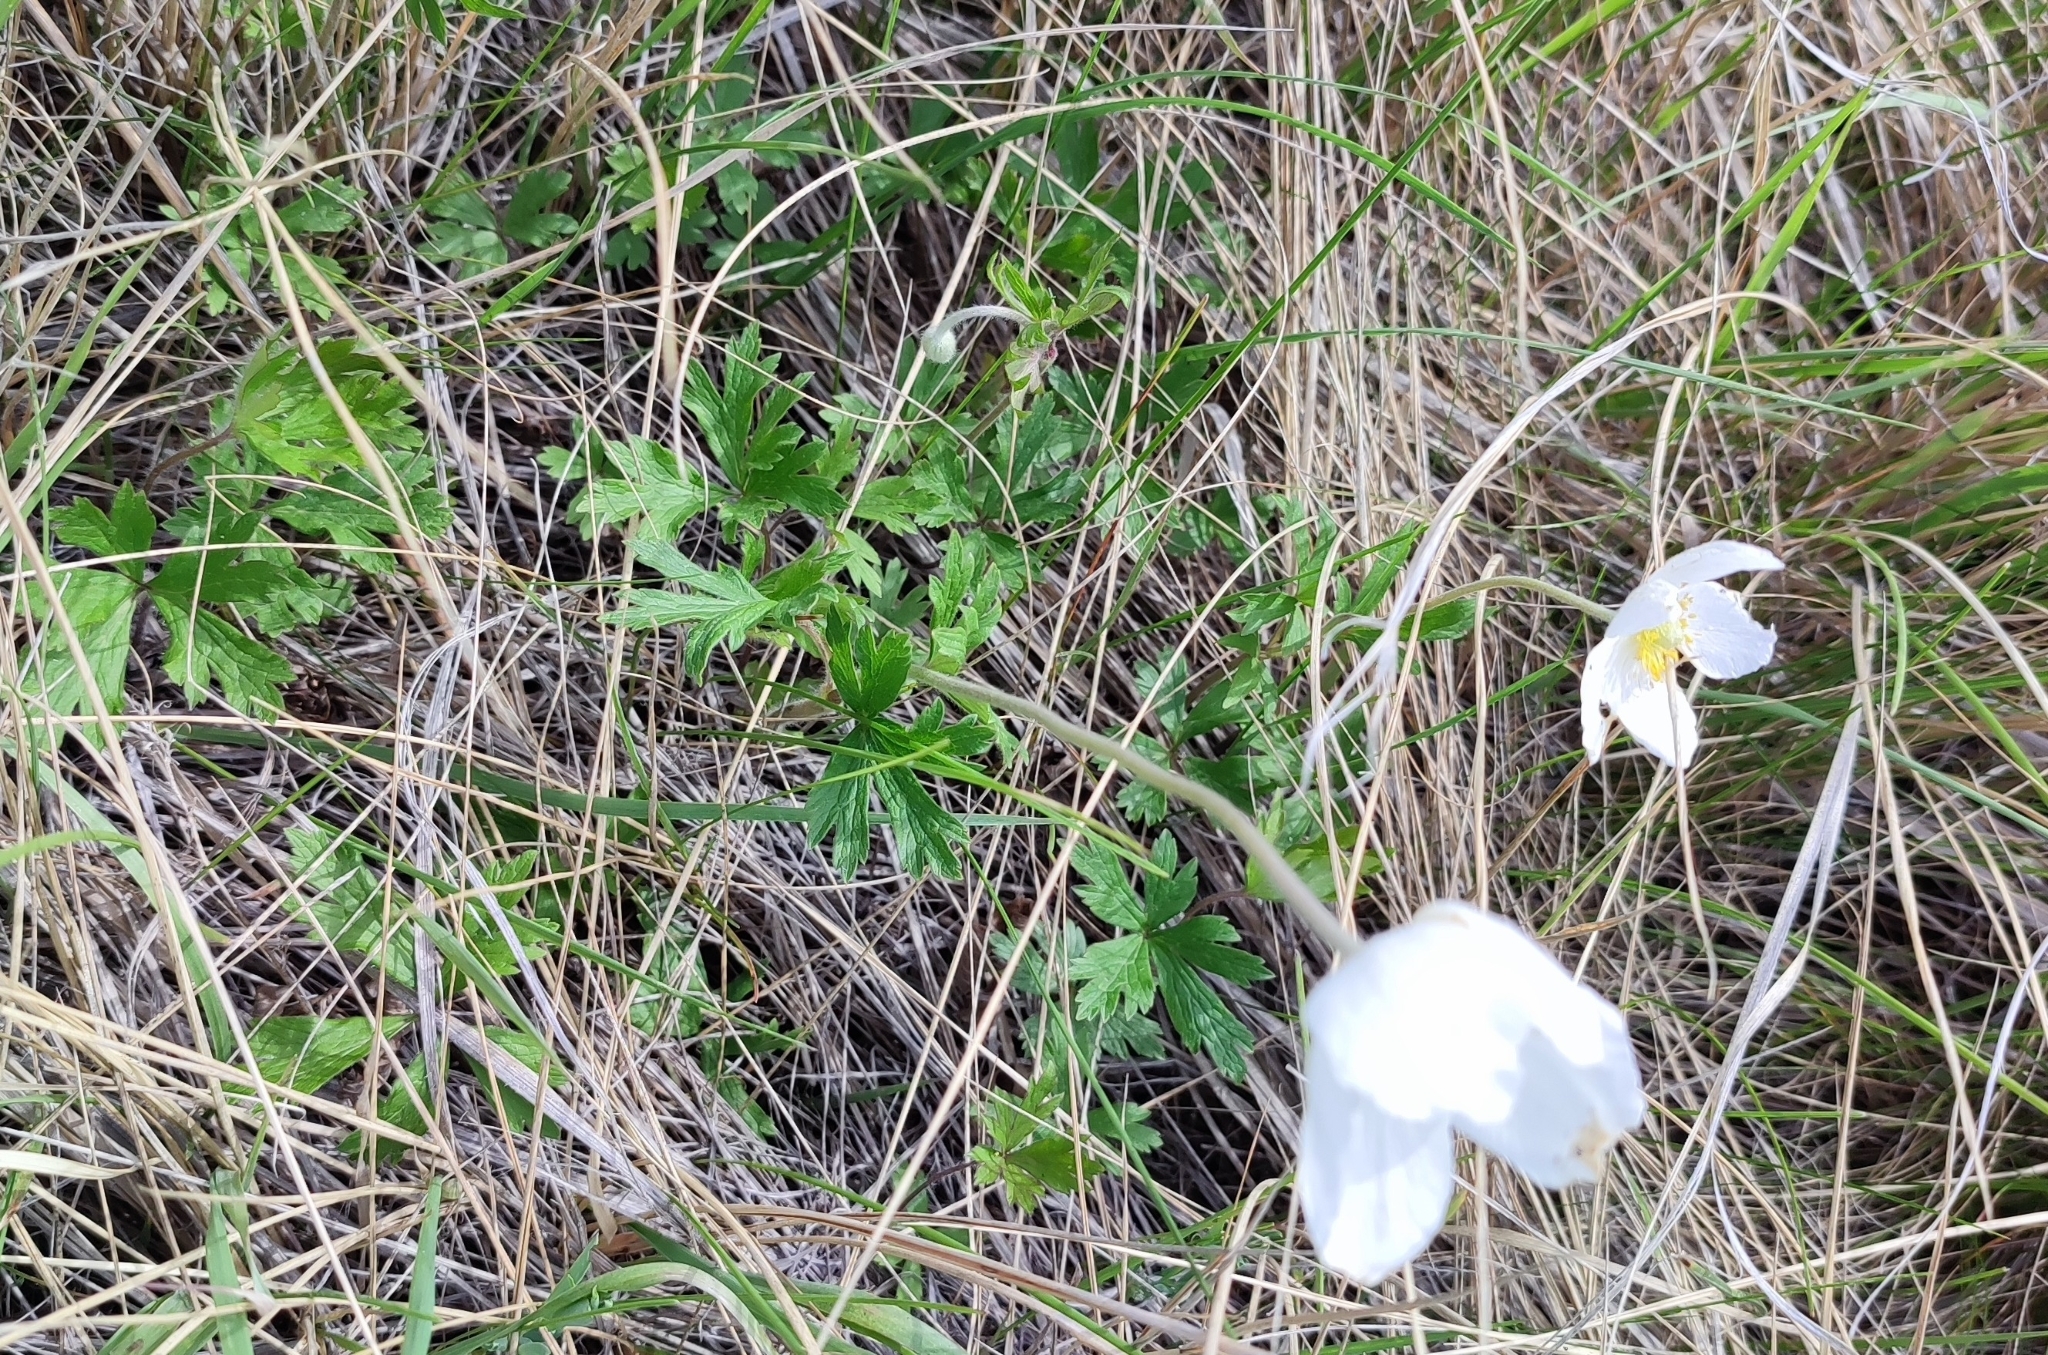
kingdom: Plantae
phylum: Tracheophyta
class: Magnoliopsida
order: Ranunculales
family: Ranunculaceae
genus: Anemone
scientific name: Anemone sylvestris
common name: Snowdrop anemone
